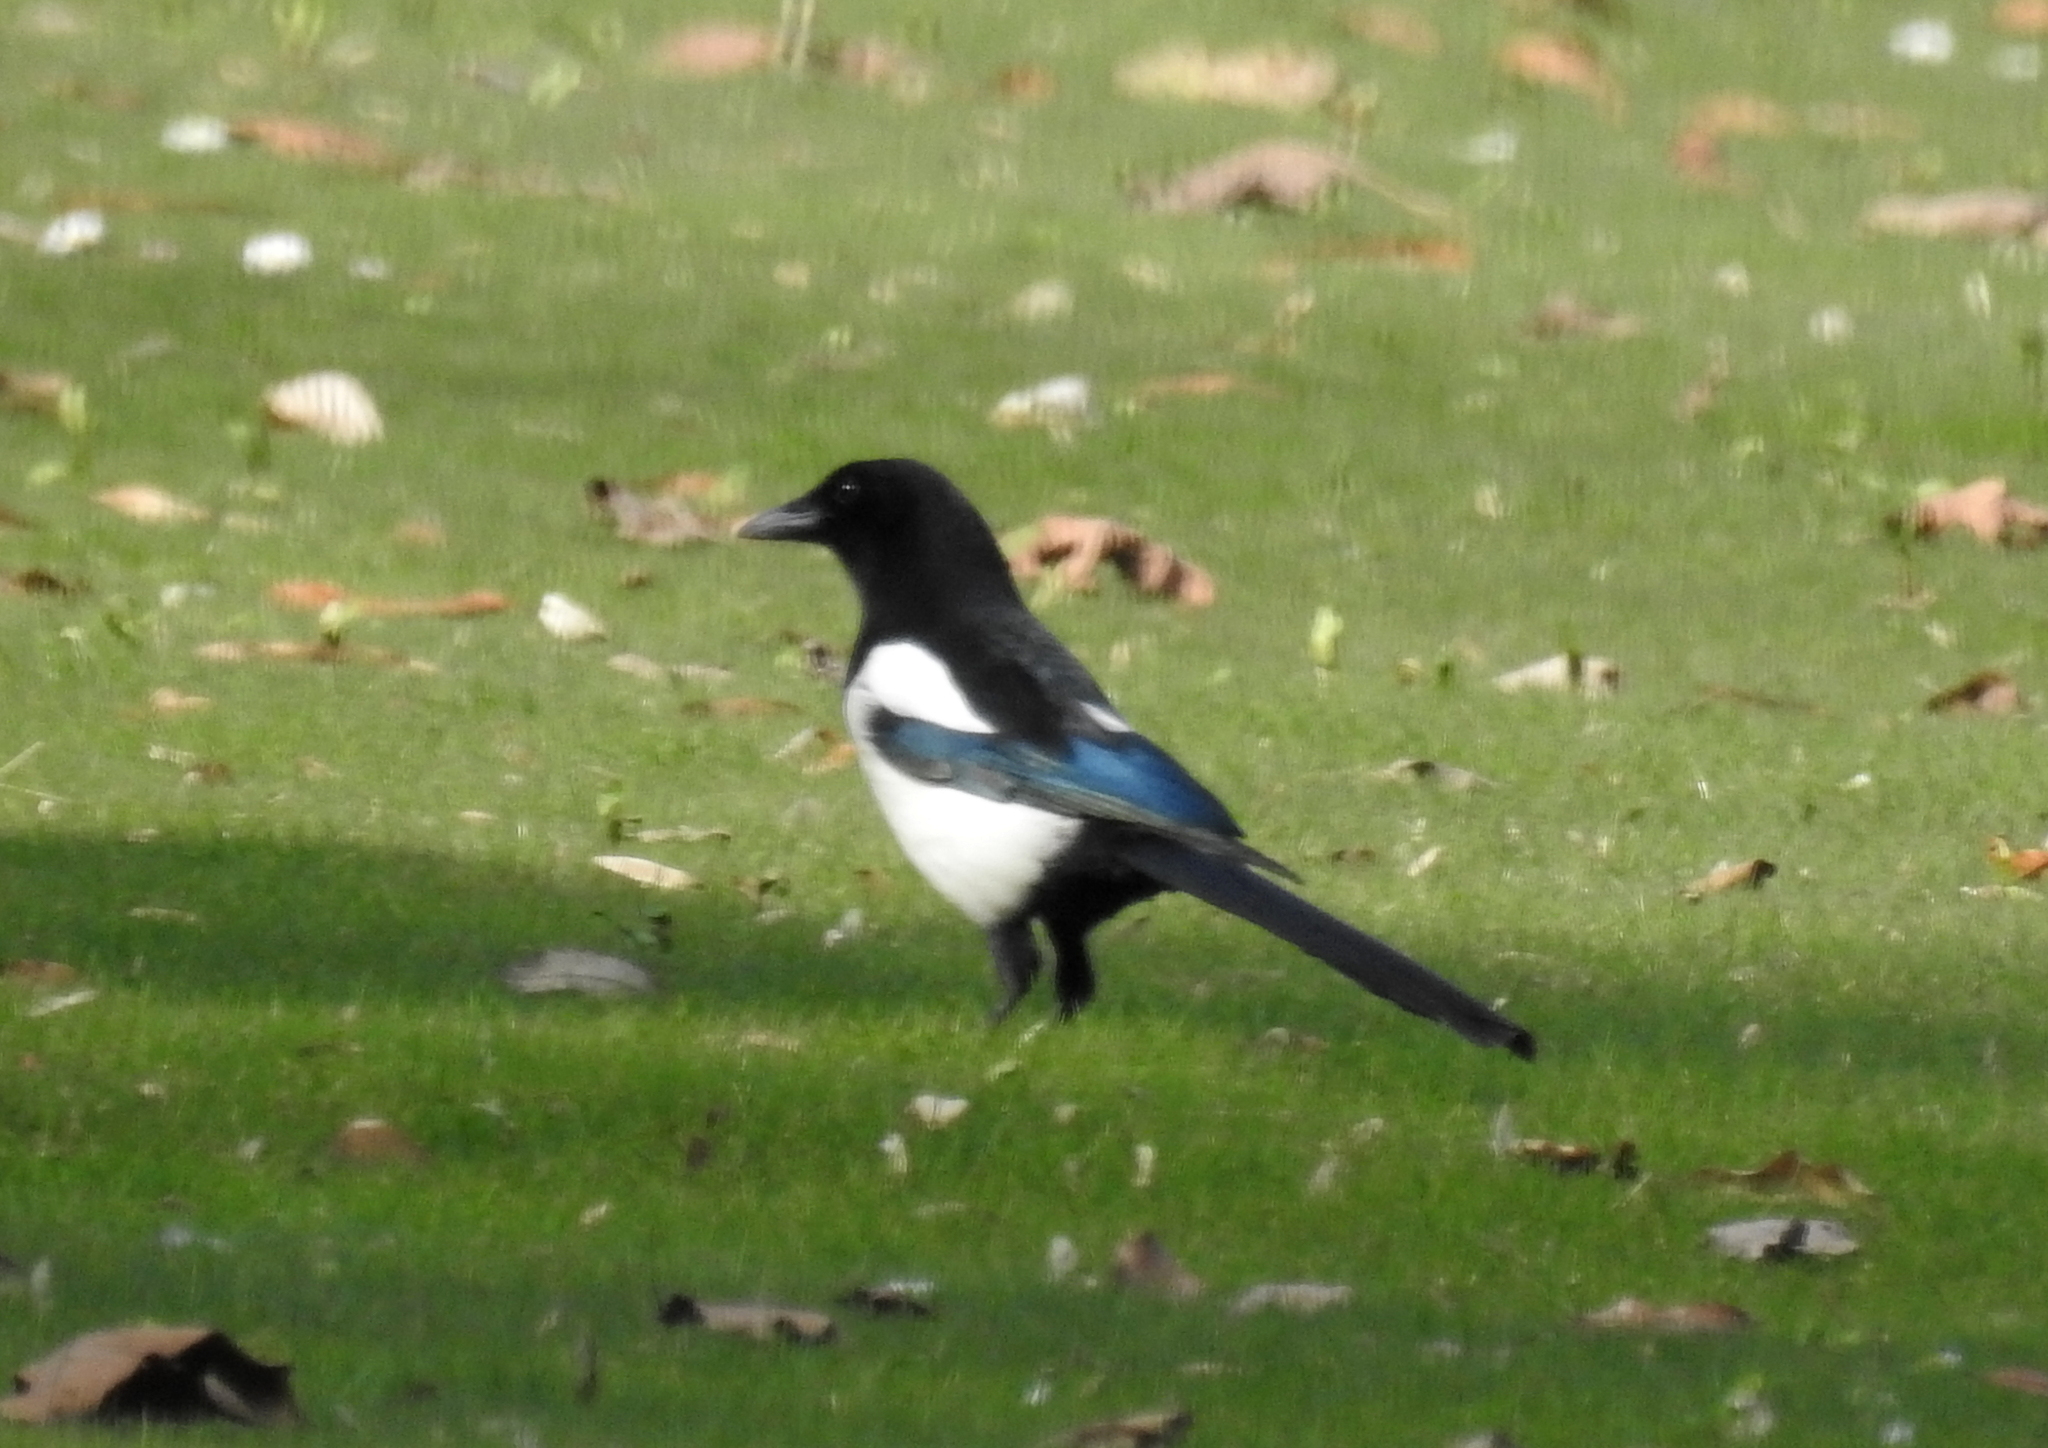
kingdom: Animalia
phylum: Chordata
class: Aves
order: Passeriformes
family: Corvidae
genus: Pica
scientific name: Pica pica
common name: Eurasian magpie
